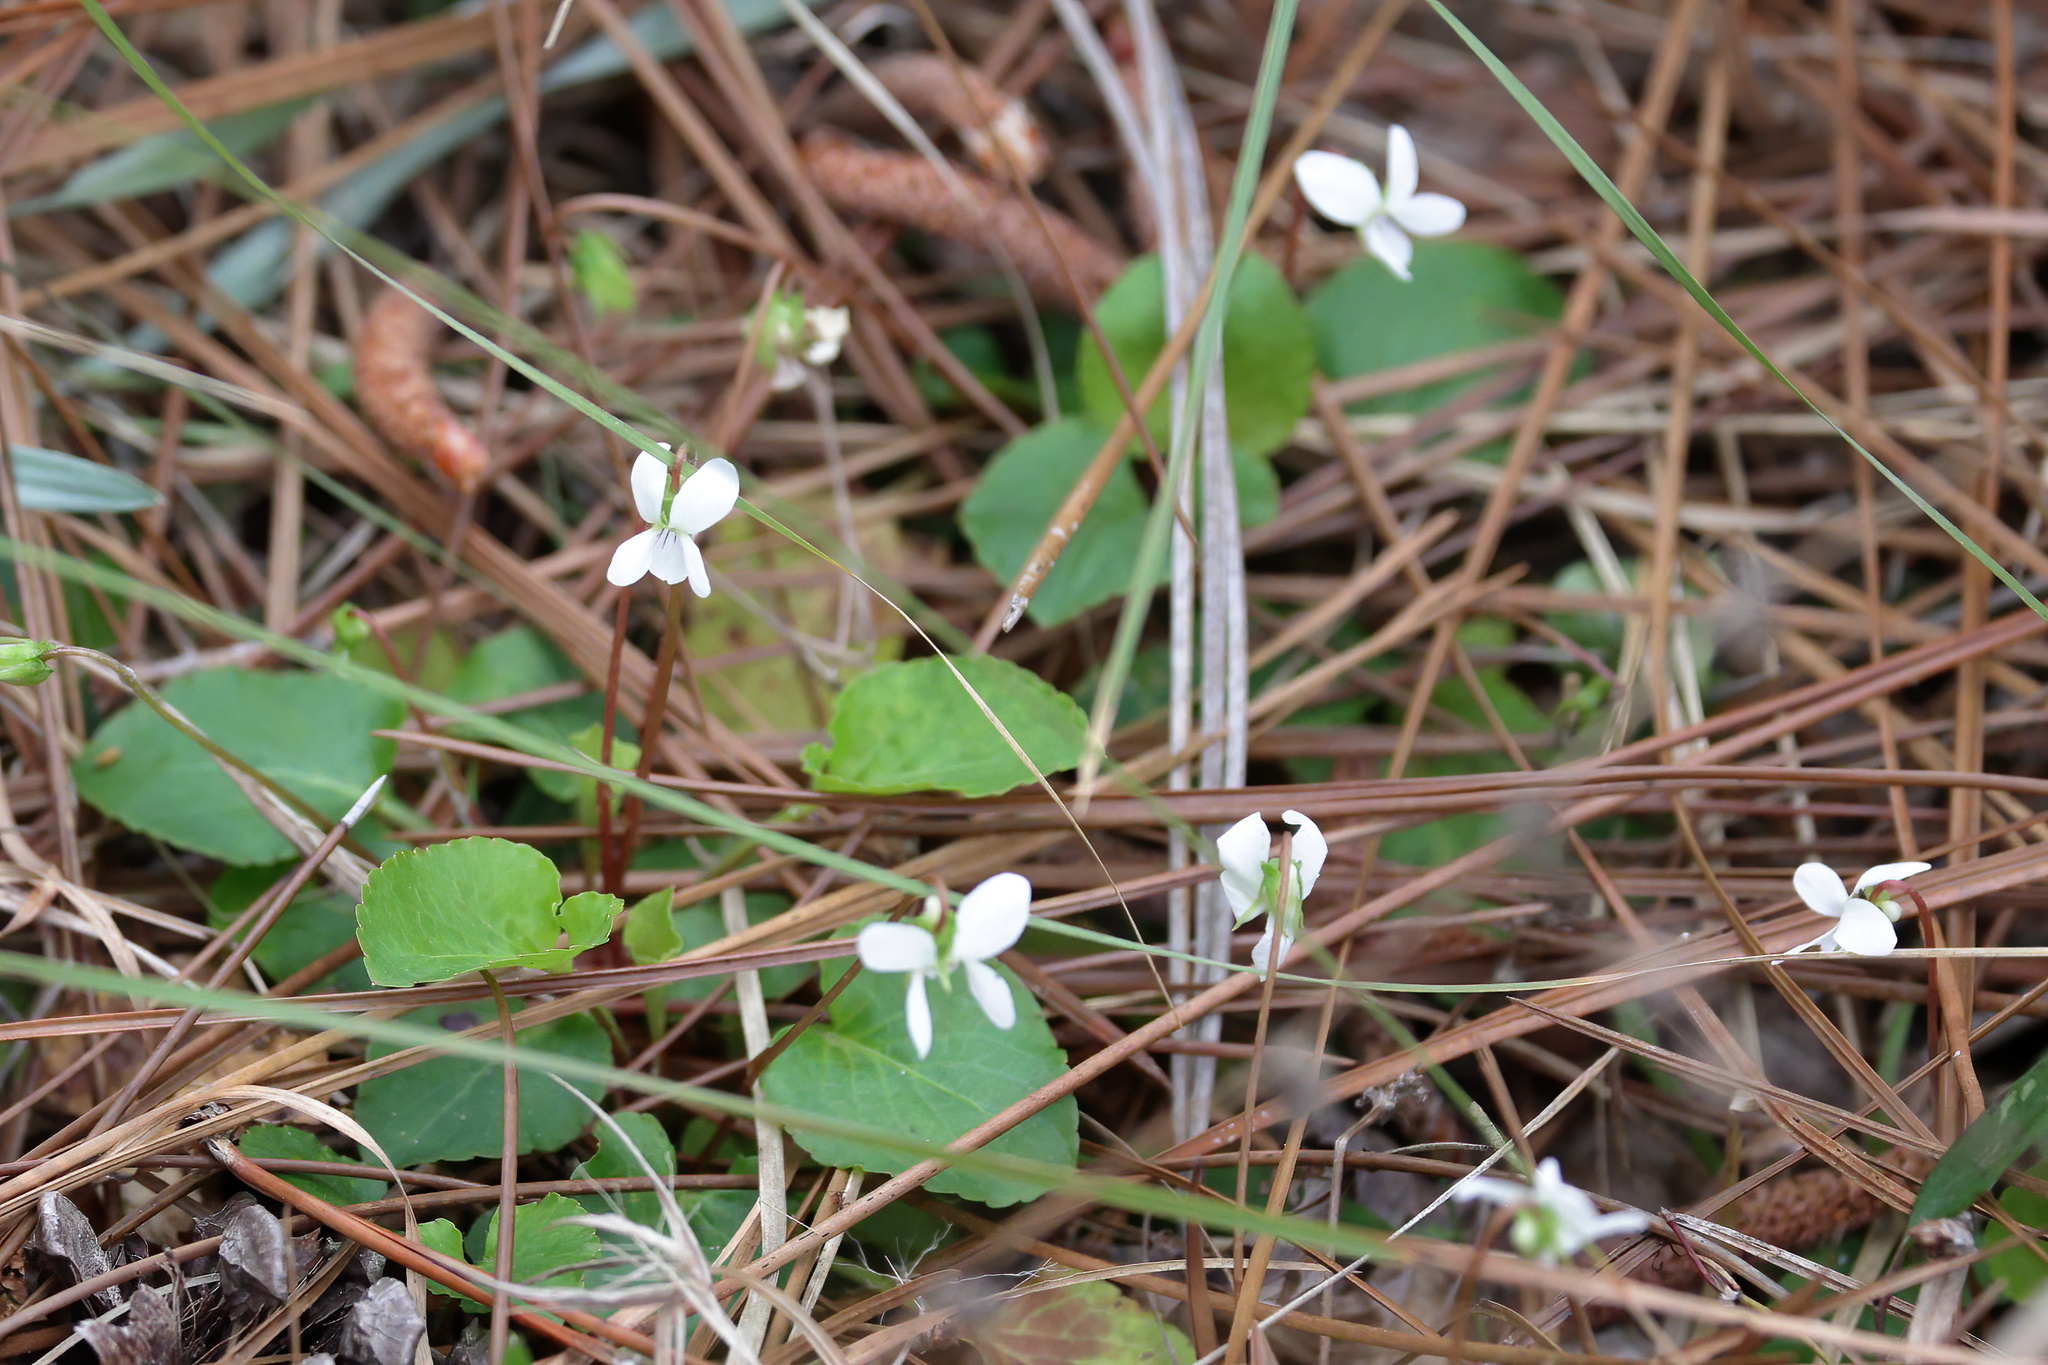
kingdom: Plantae
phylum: Tracheophyta
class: Magnoliopsida
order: Malpighiales
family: Violaceae
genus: Viola
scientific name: Viola primulifolia
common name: Primrose-leaf violet
